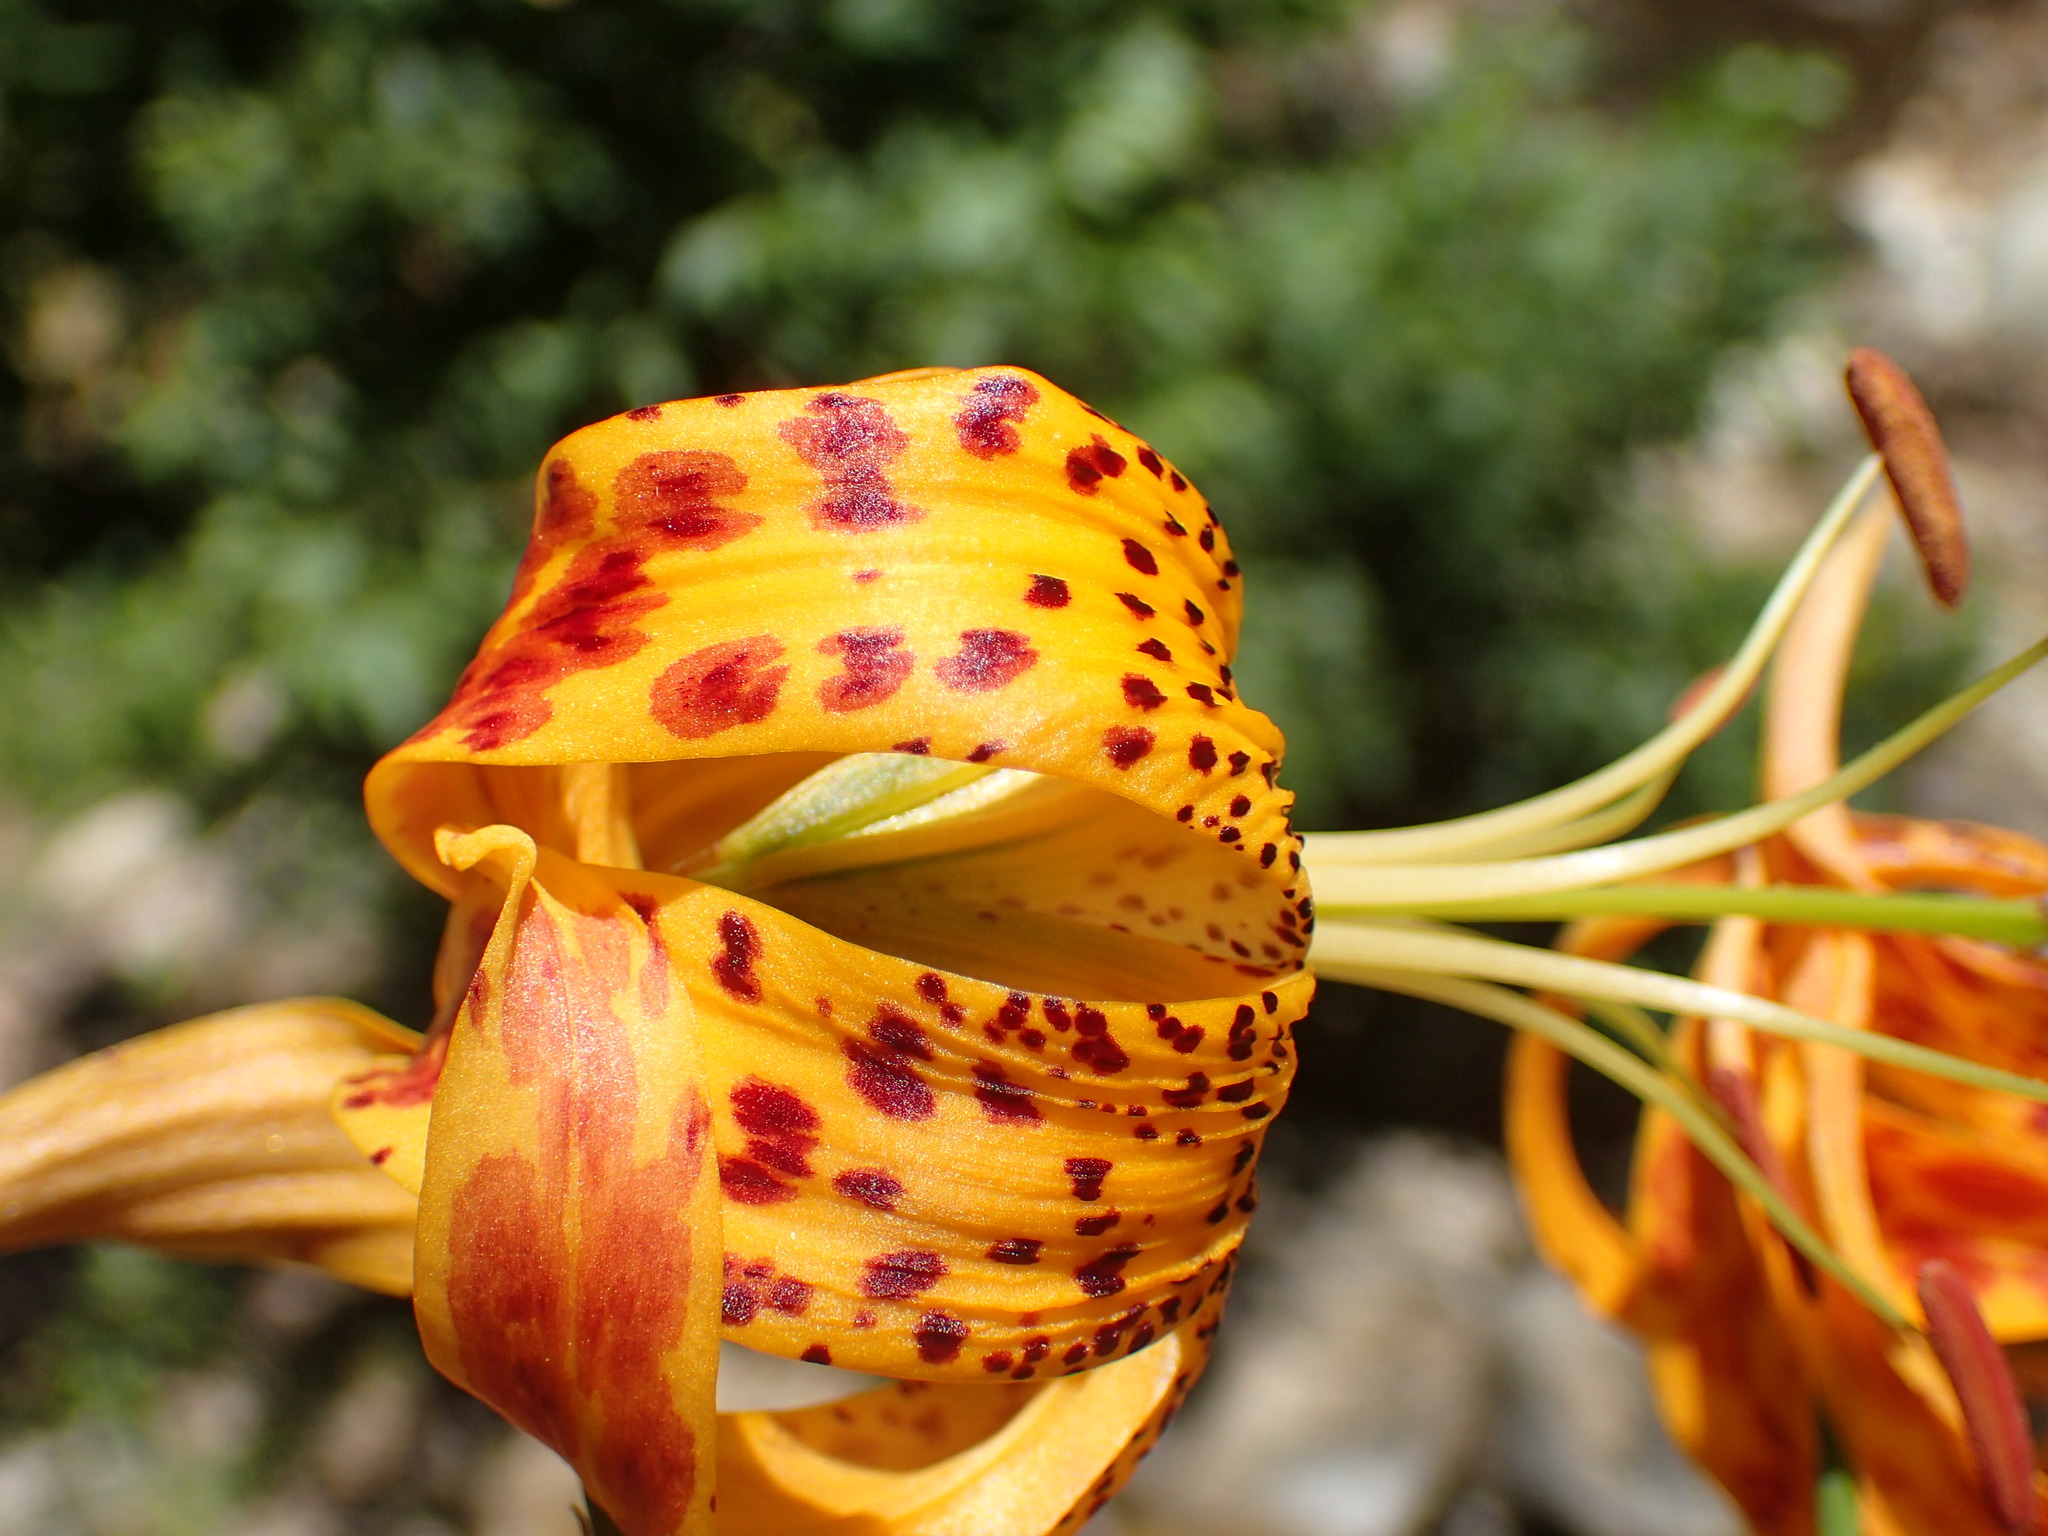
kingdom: Plantae
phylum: Tracheophyta
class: Liliopsida
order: Liliales
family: Liliaceae
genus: Lilium
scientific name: Lilium humboldtii
